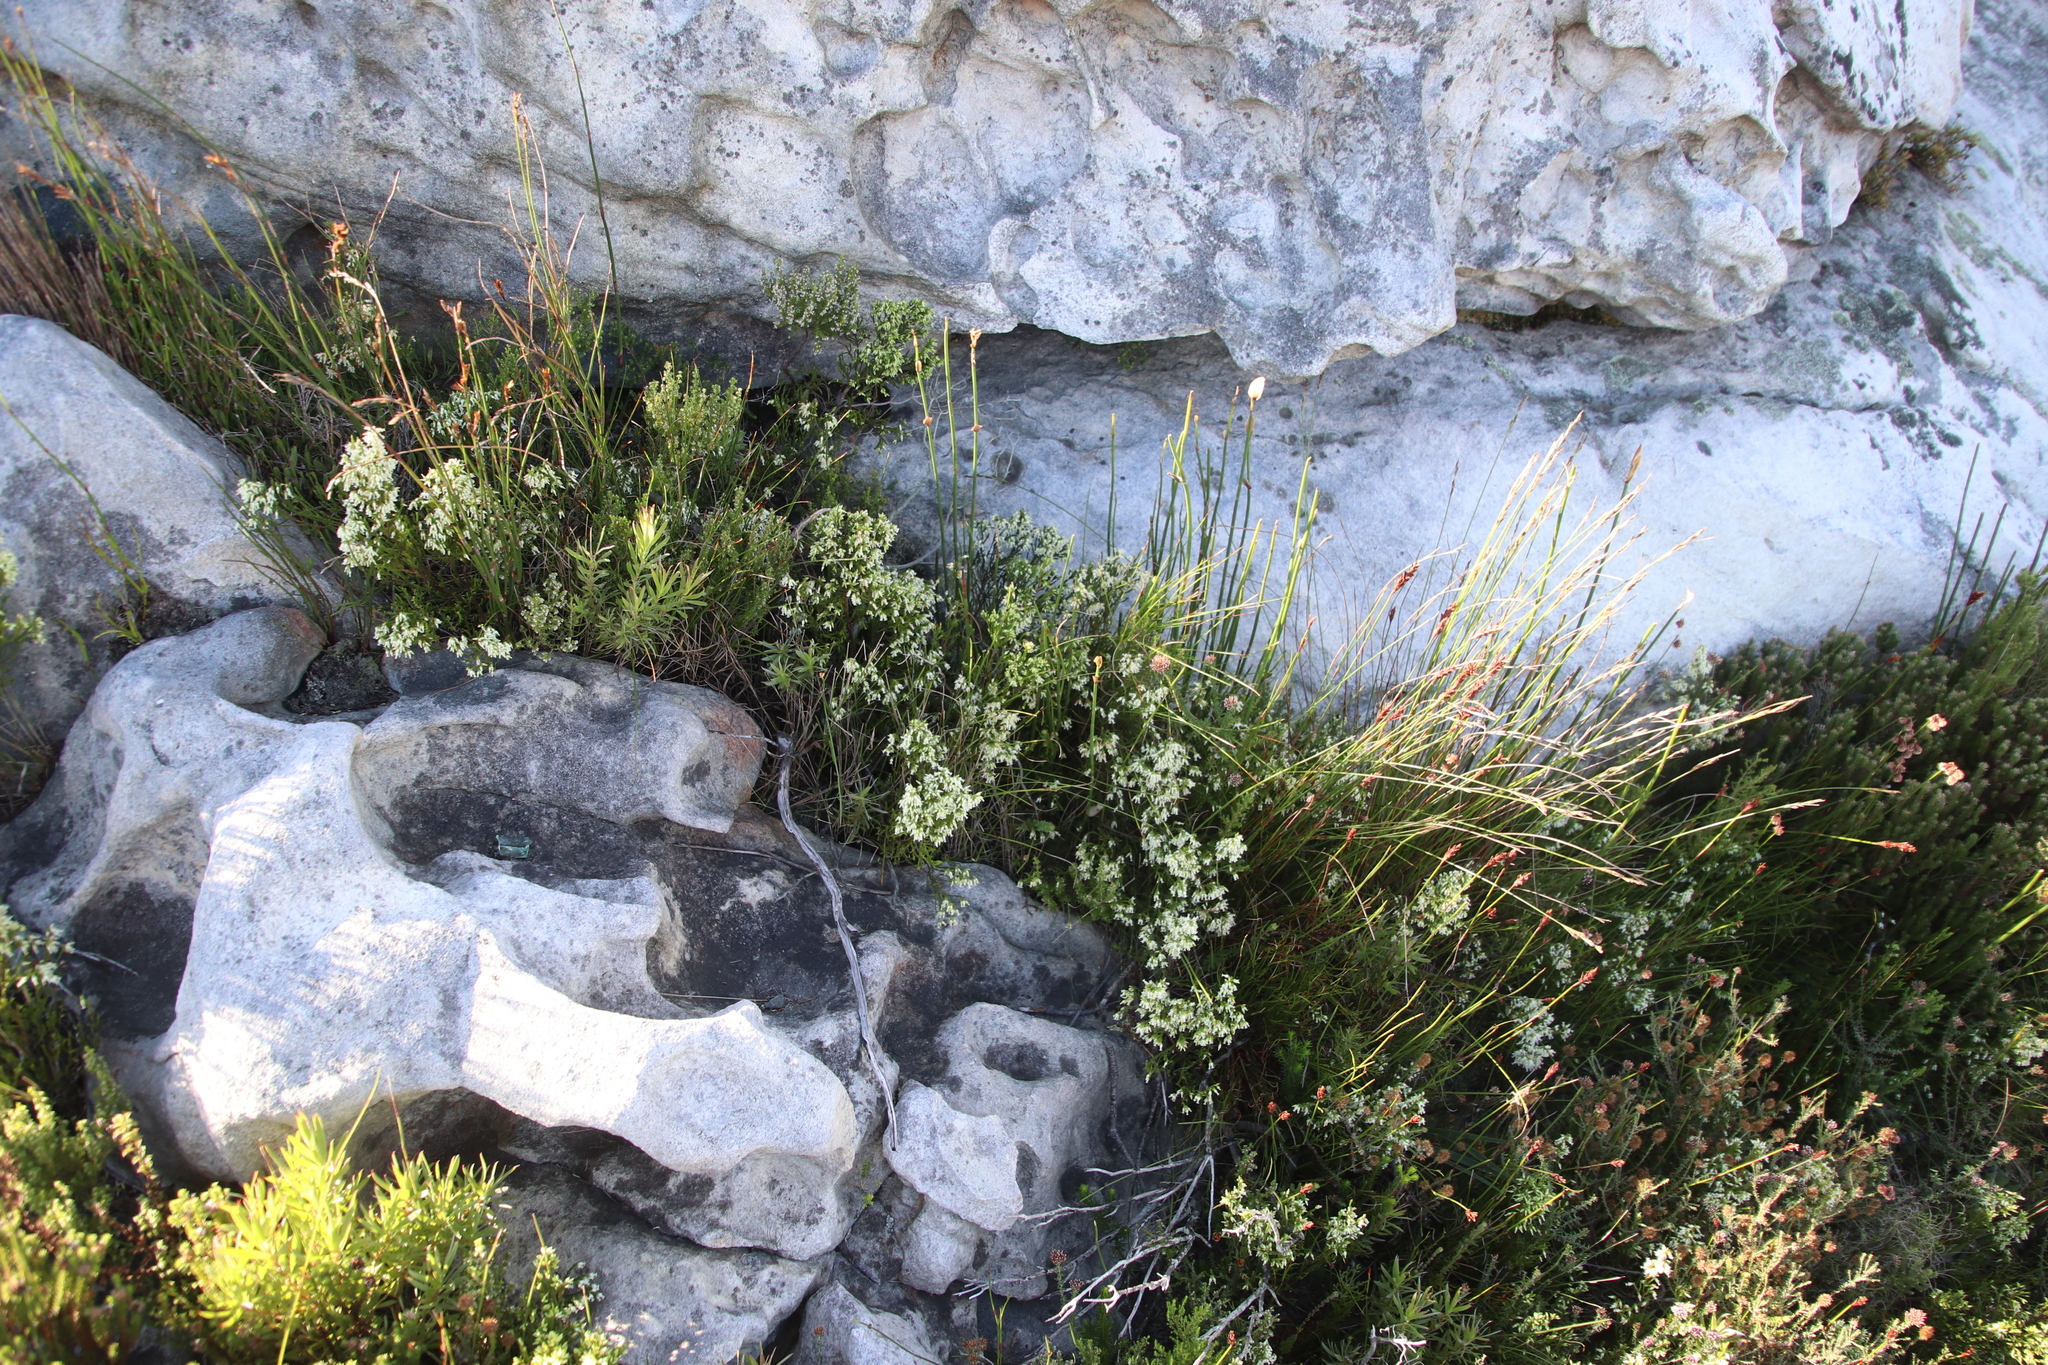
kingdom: Plantae
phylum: Tracheophyta
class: Magnoliopsida
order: Ericales
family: Ericaceae
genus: Erica
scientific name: Erica lutea
